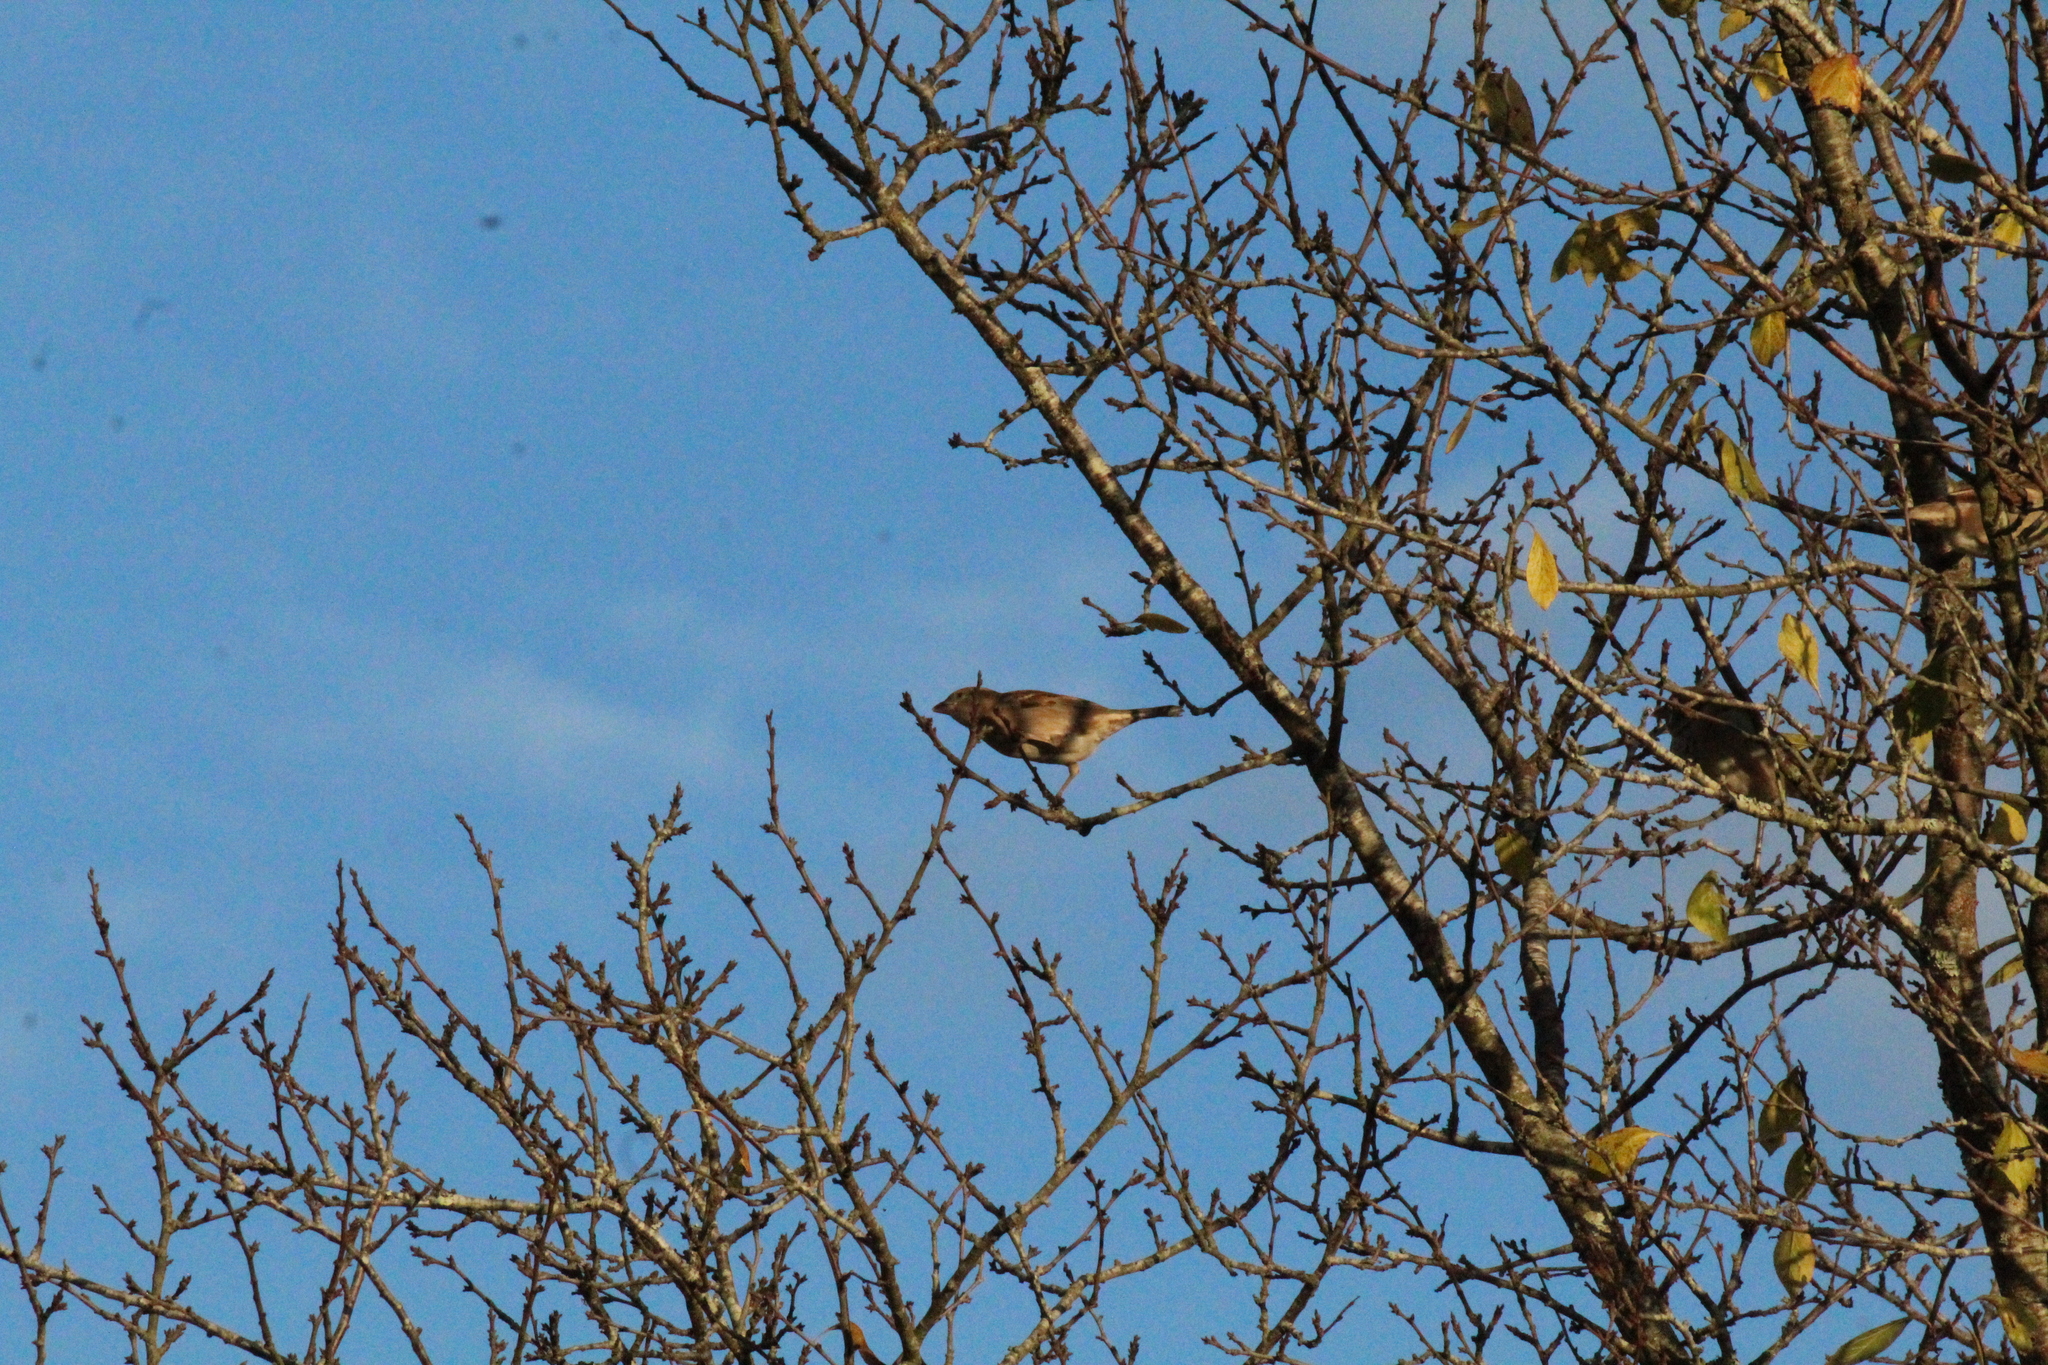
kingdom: Animalia
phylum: Chordata
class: Aves
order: Passeriformes
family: Passeridae
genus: Passer
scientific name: Passer domesticus
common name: House sparrow
